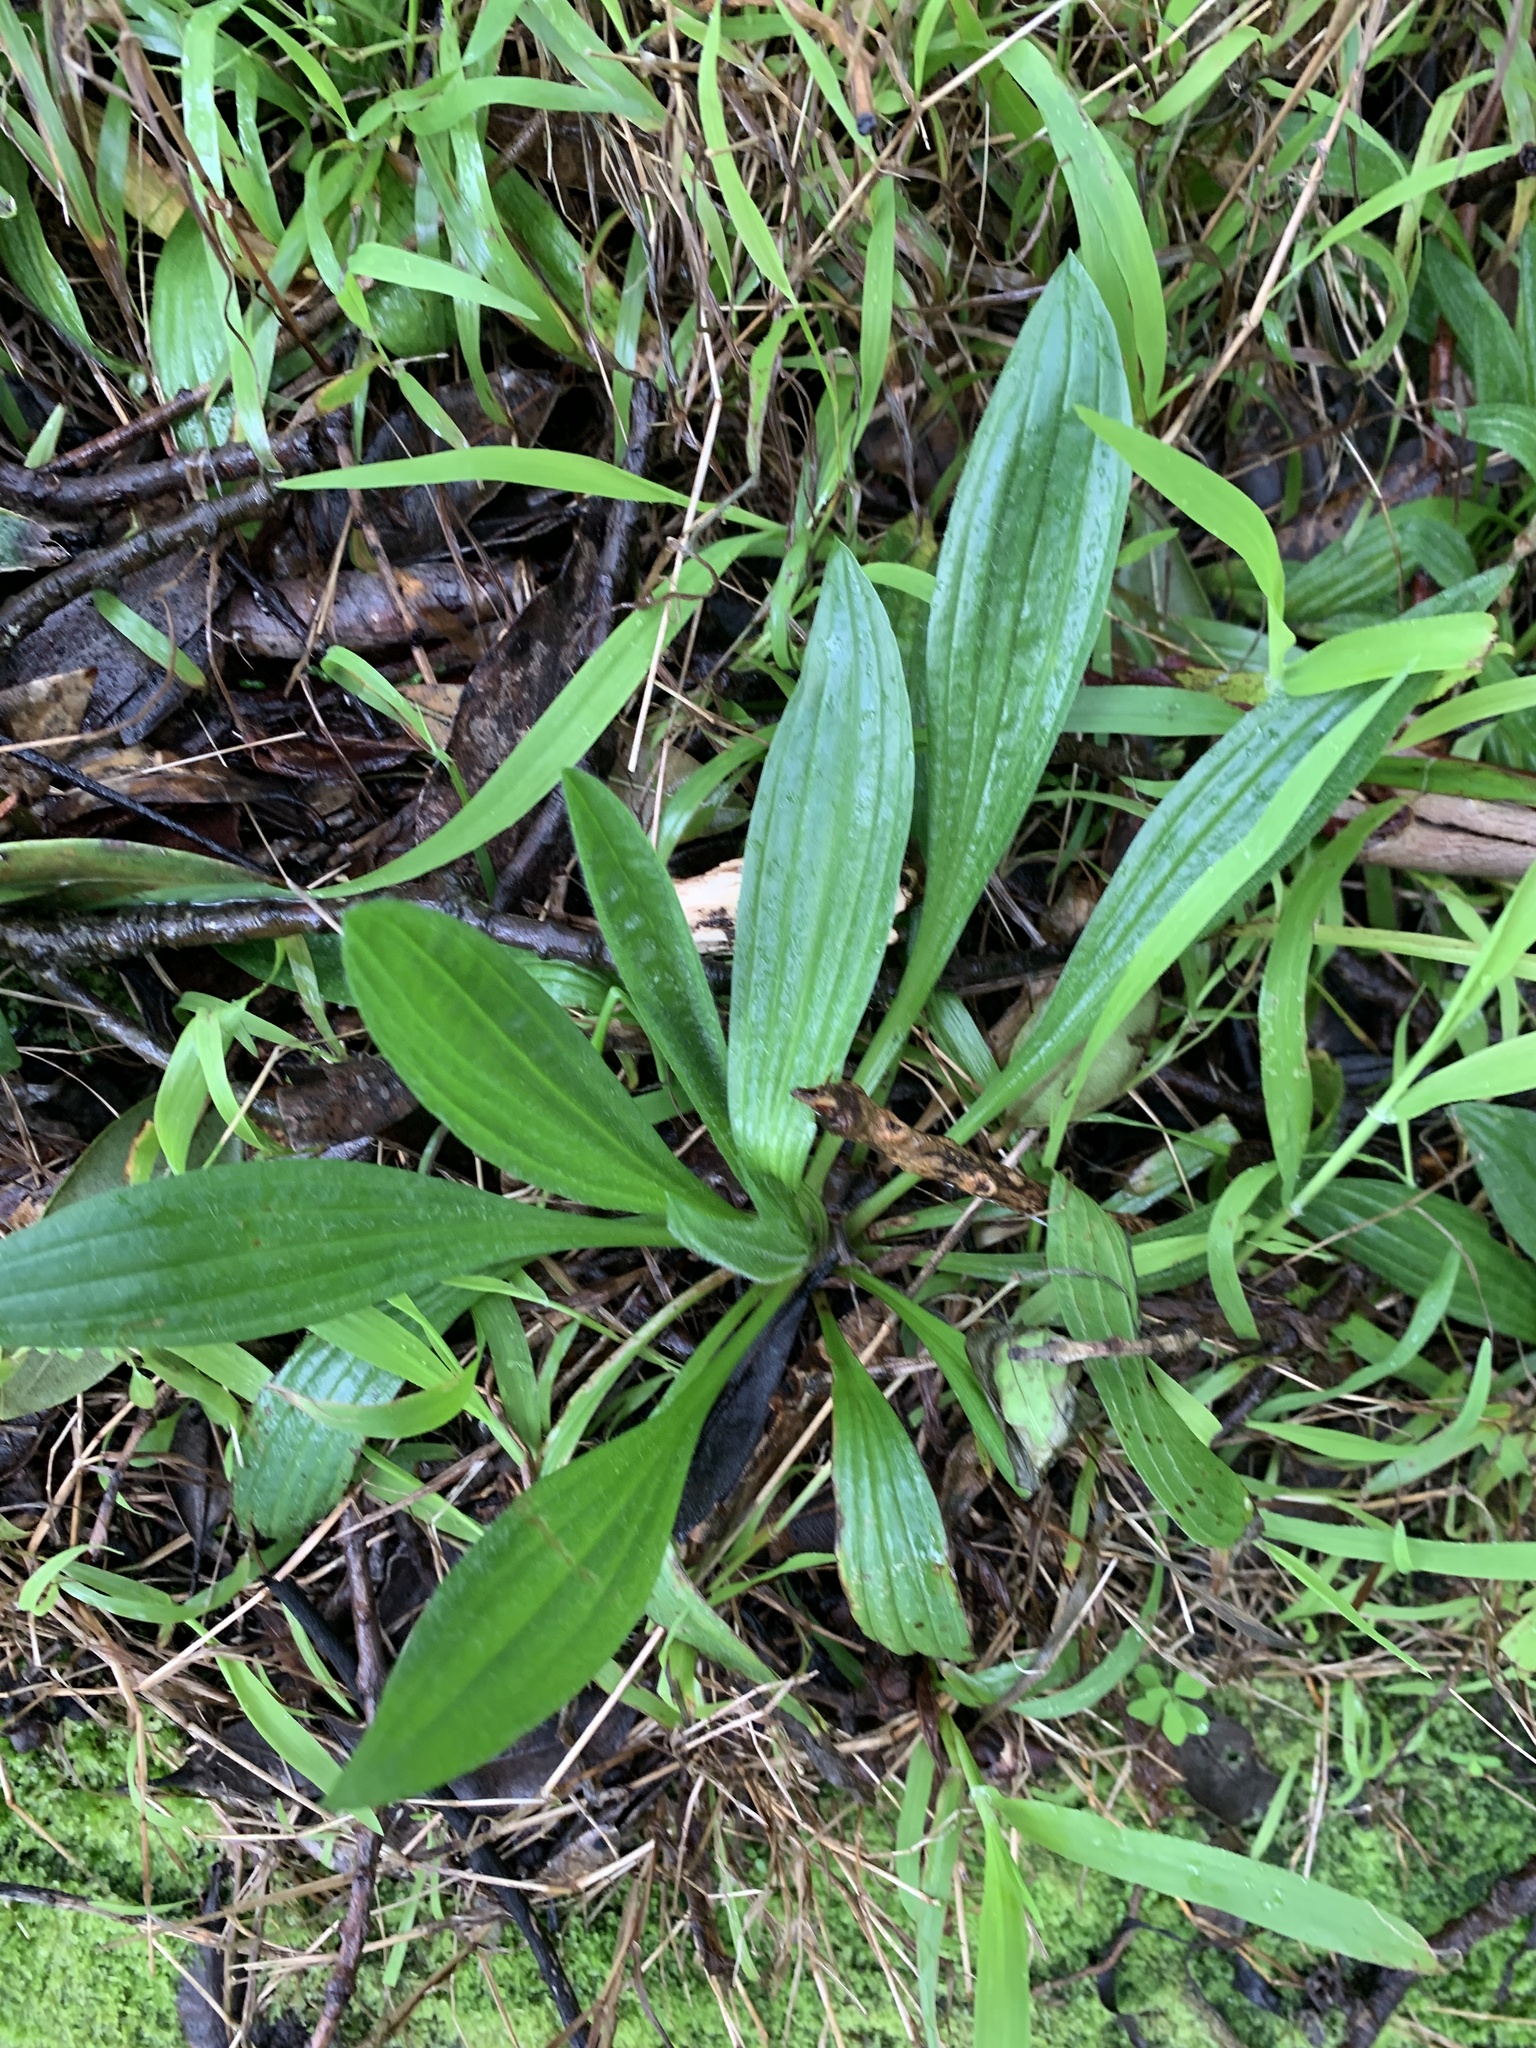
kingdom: Plantae
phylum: Tracheophyta
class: Magnoliopsida
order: Lamiales
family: Plantaginaceae
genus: Plantago
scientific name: Plantago lanceolata
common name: Ribwort plantain
